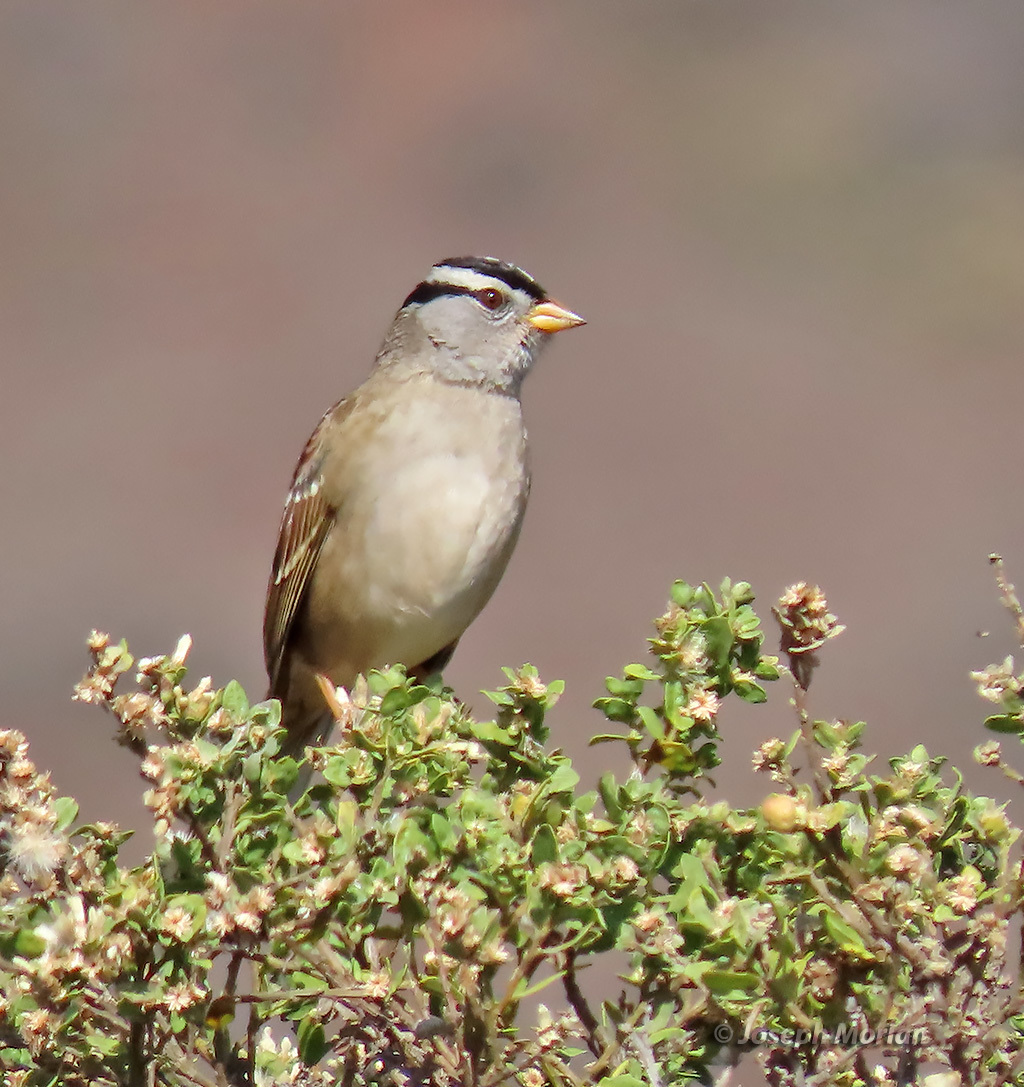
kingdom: Animalia
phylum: Chordata
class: Aves
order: Passeriformes
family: Passerellidae
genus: Zonotrichia
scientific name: Zonotrichia leucophrys
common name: White-crowned sparrow
